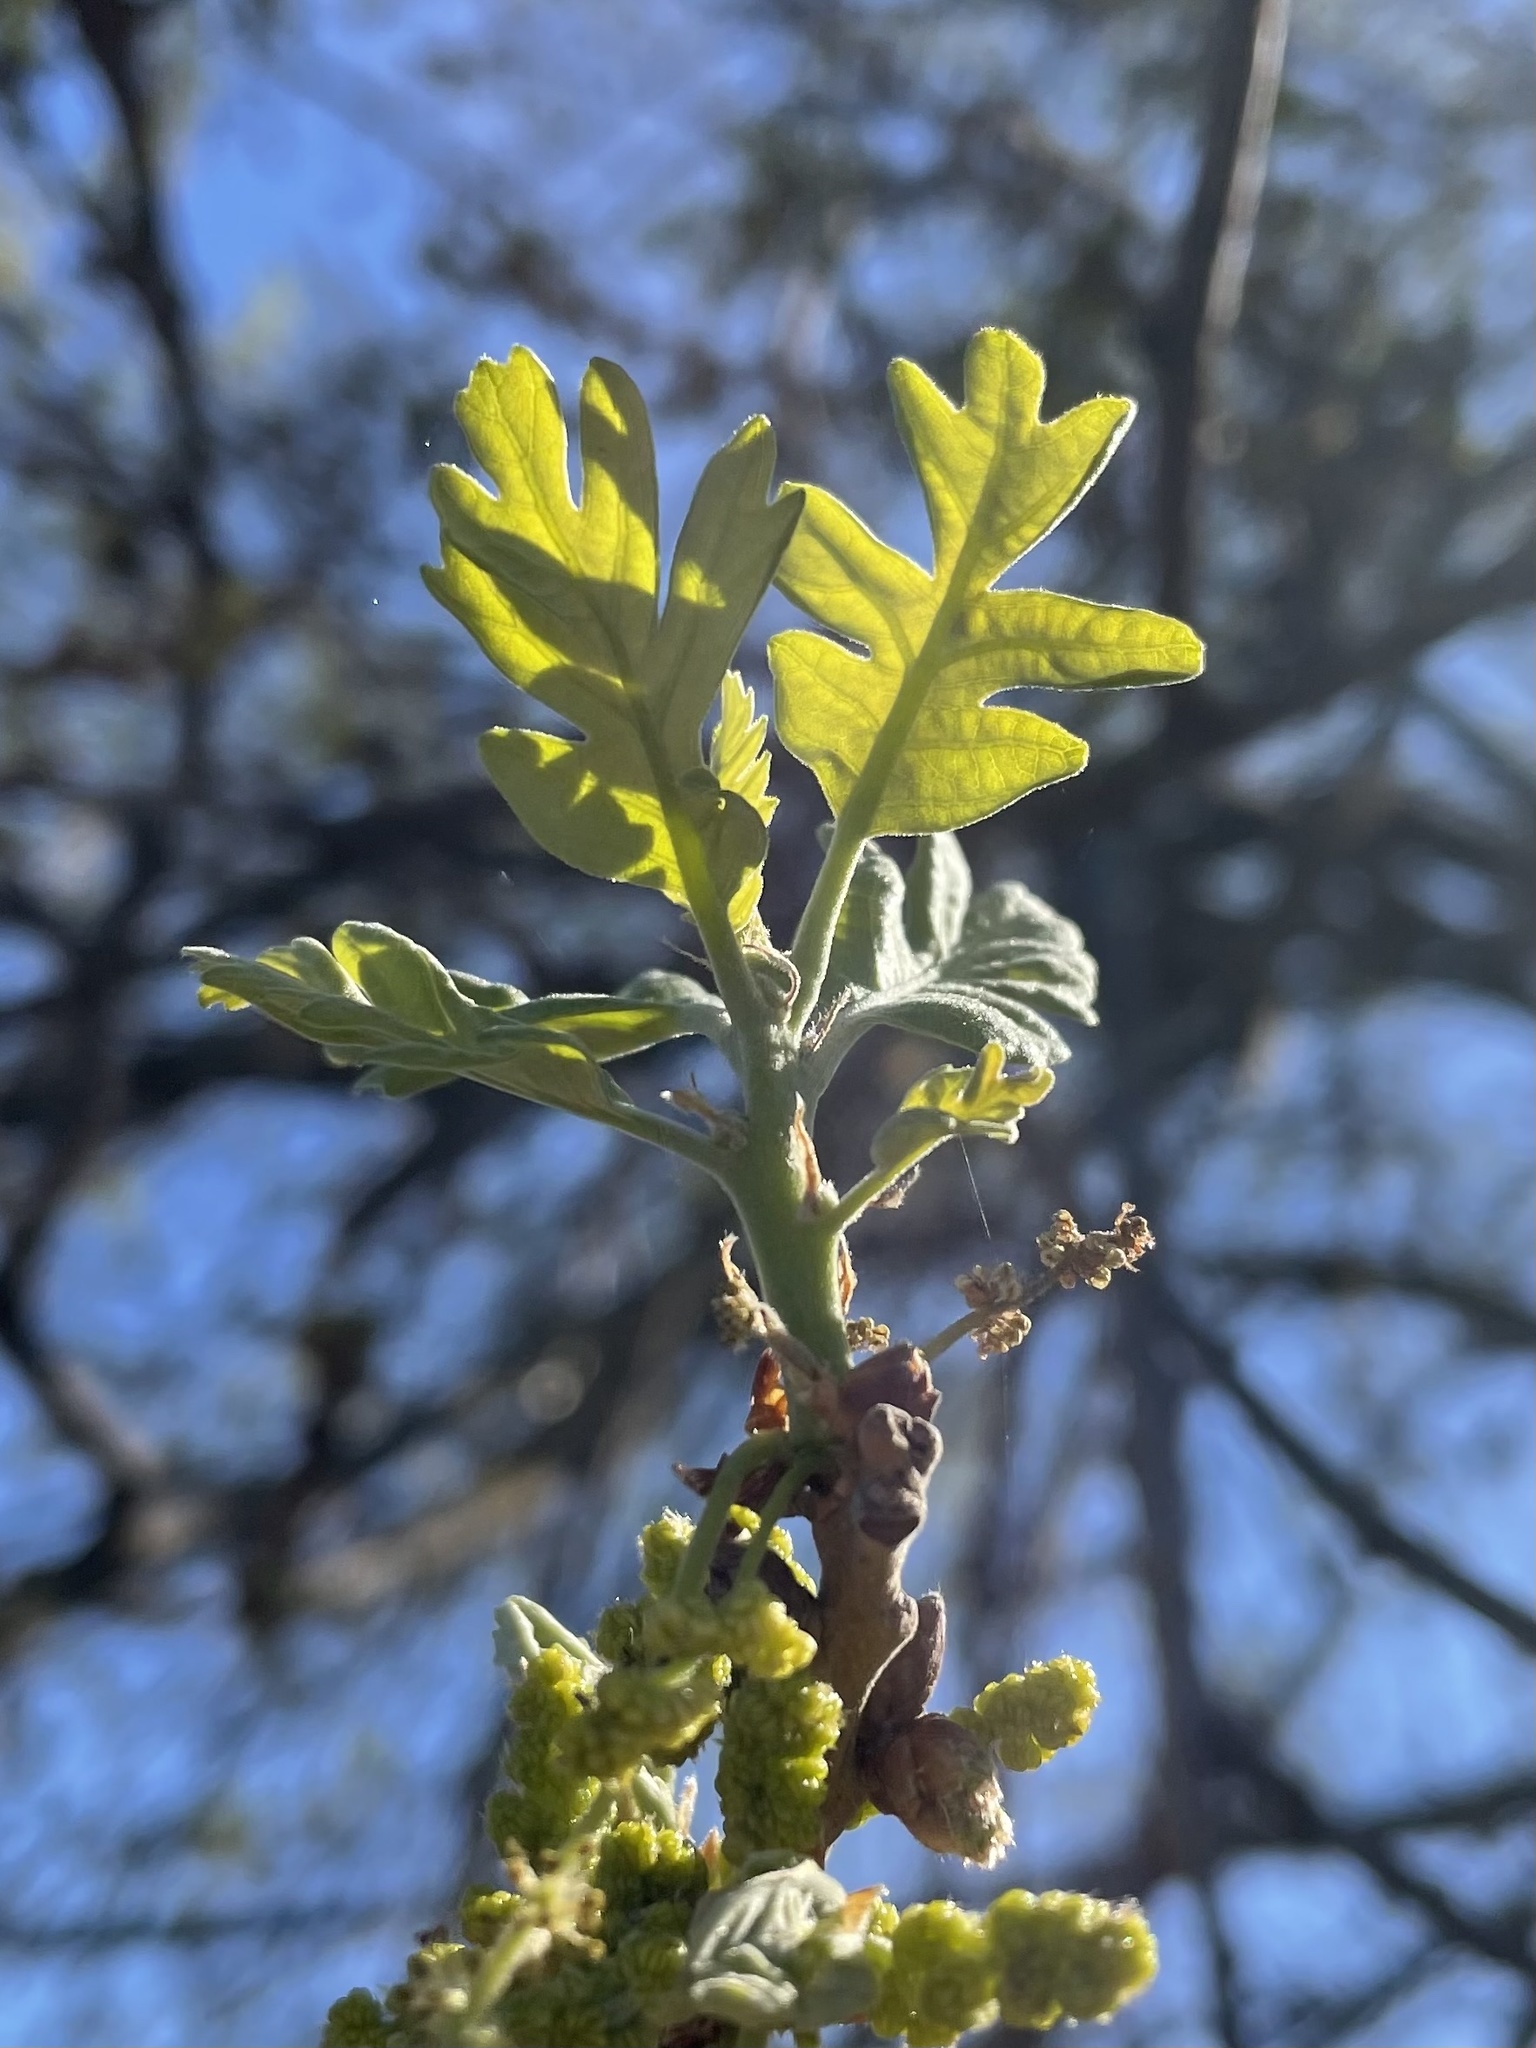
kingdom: Plantae
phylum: Tracheophyta
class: Magnoliopsida
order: Fagales
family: Fagaceae
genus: Quercus
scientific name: Quercus lobata
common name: Valley oak
